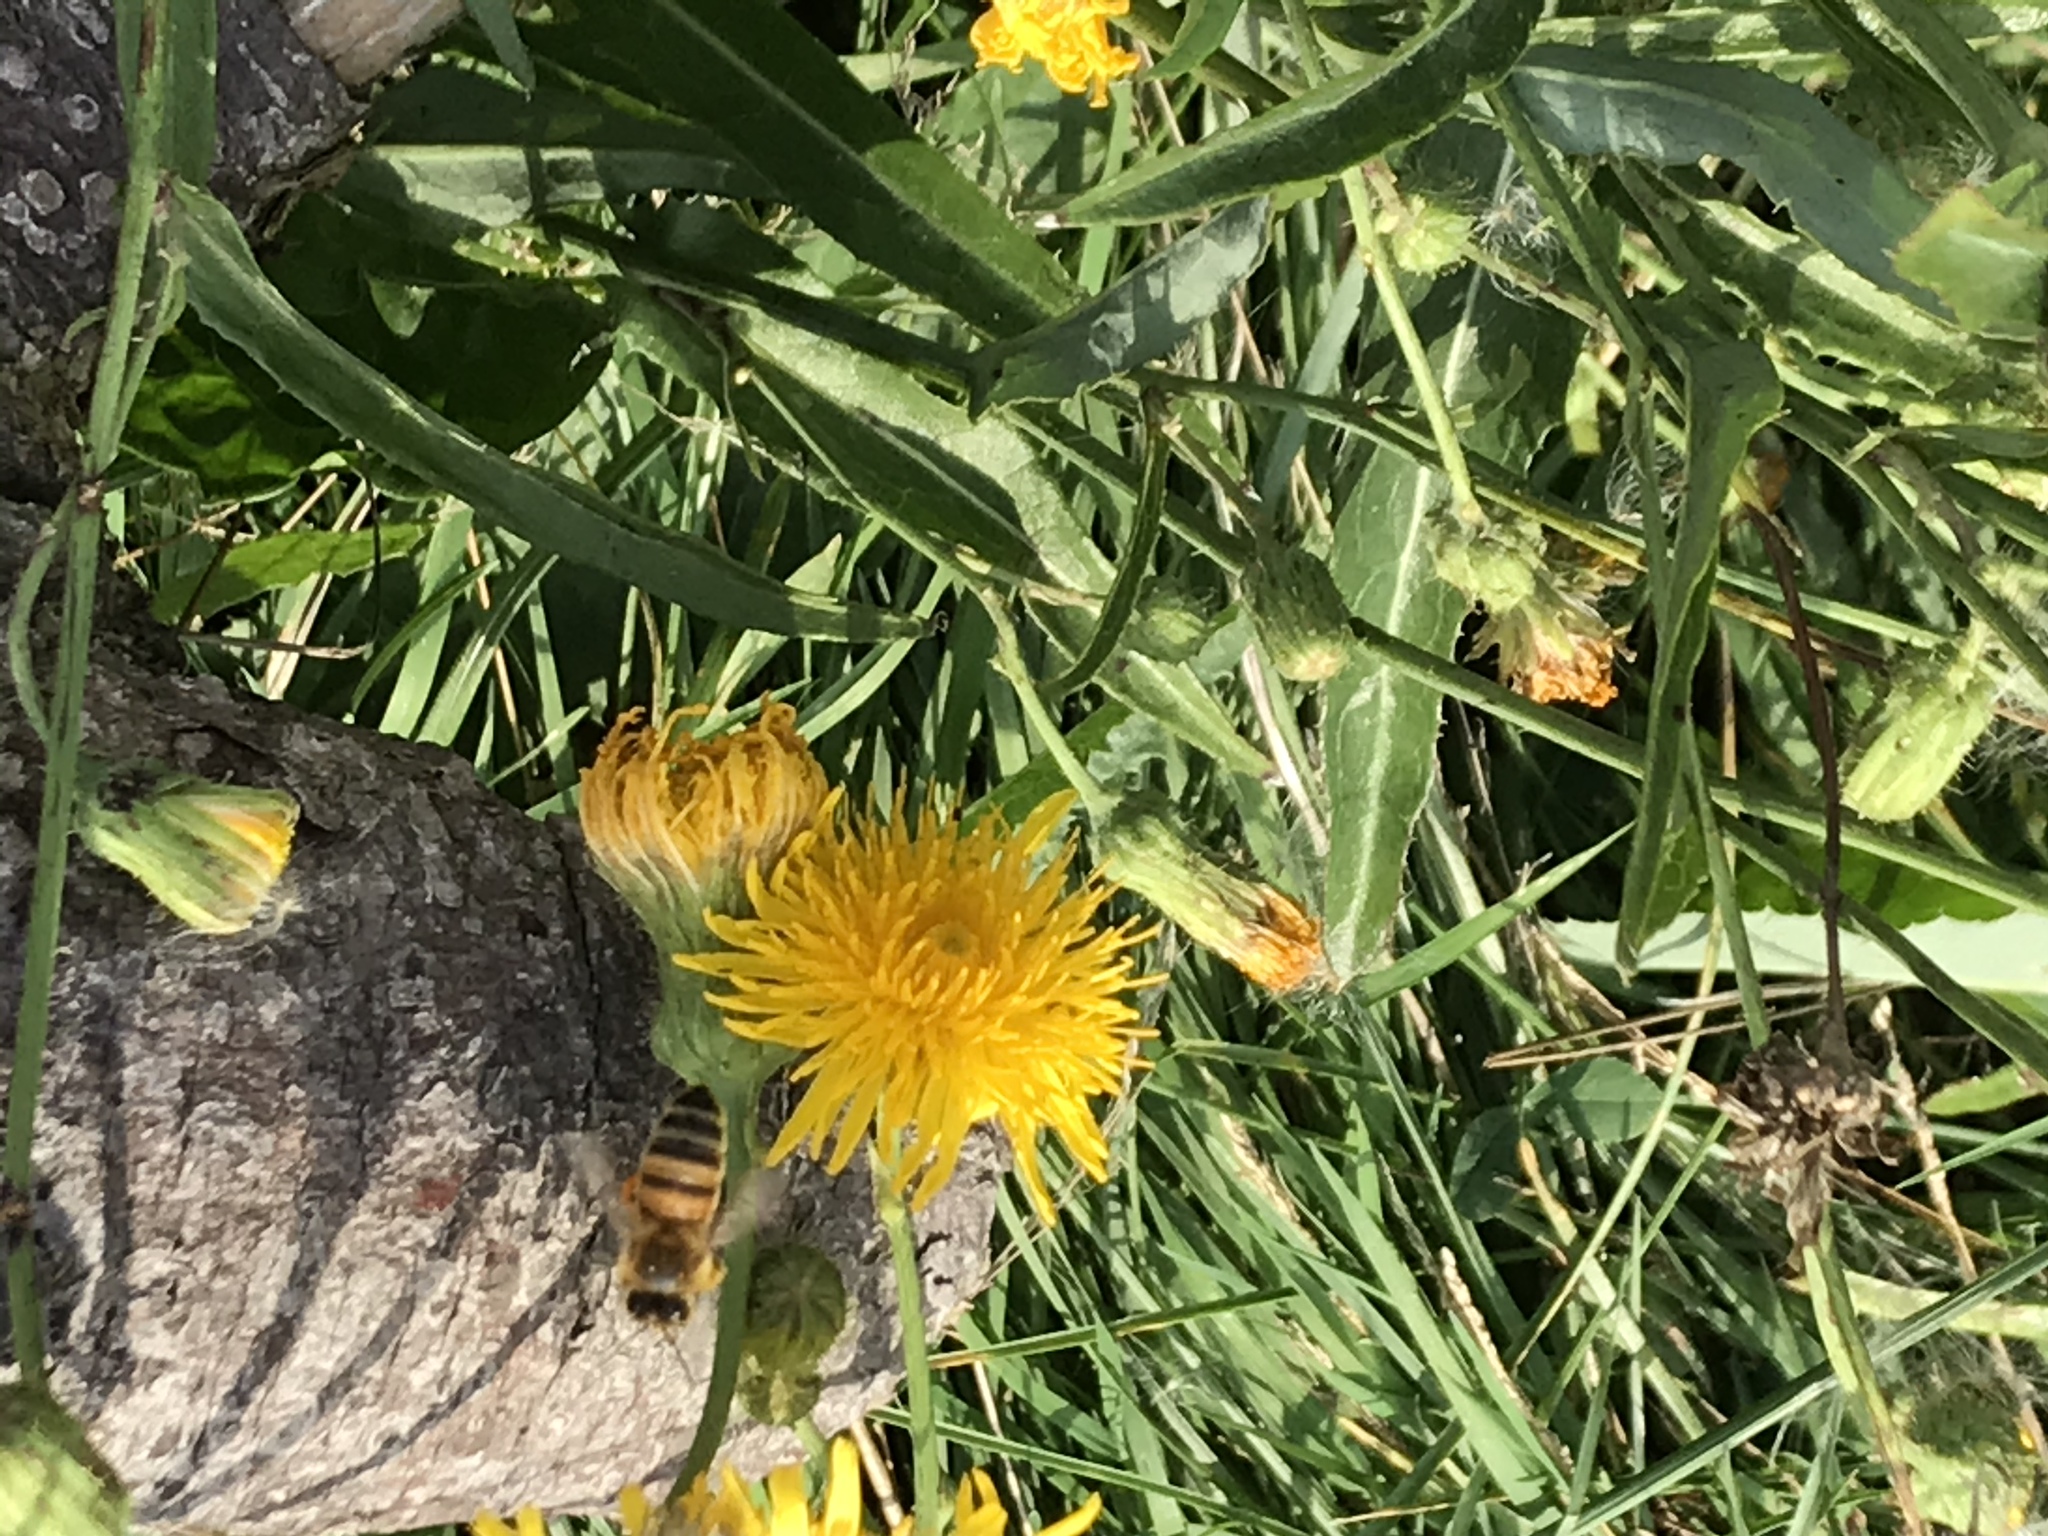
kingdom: Animalia
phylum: Arthropoda
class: Insecta
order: Hymenoptera
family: Apidae
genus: Apis
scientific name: Apis mellifera
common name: Honey bee
